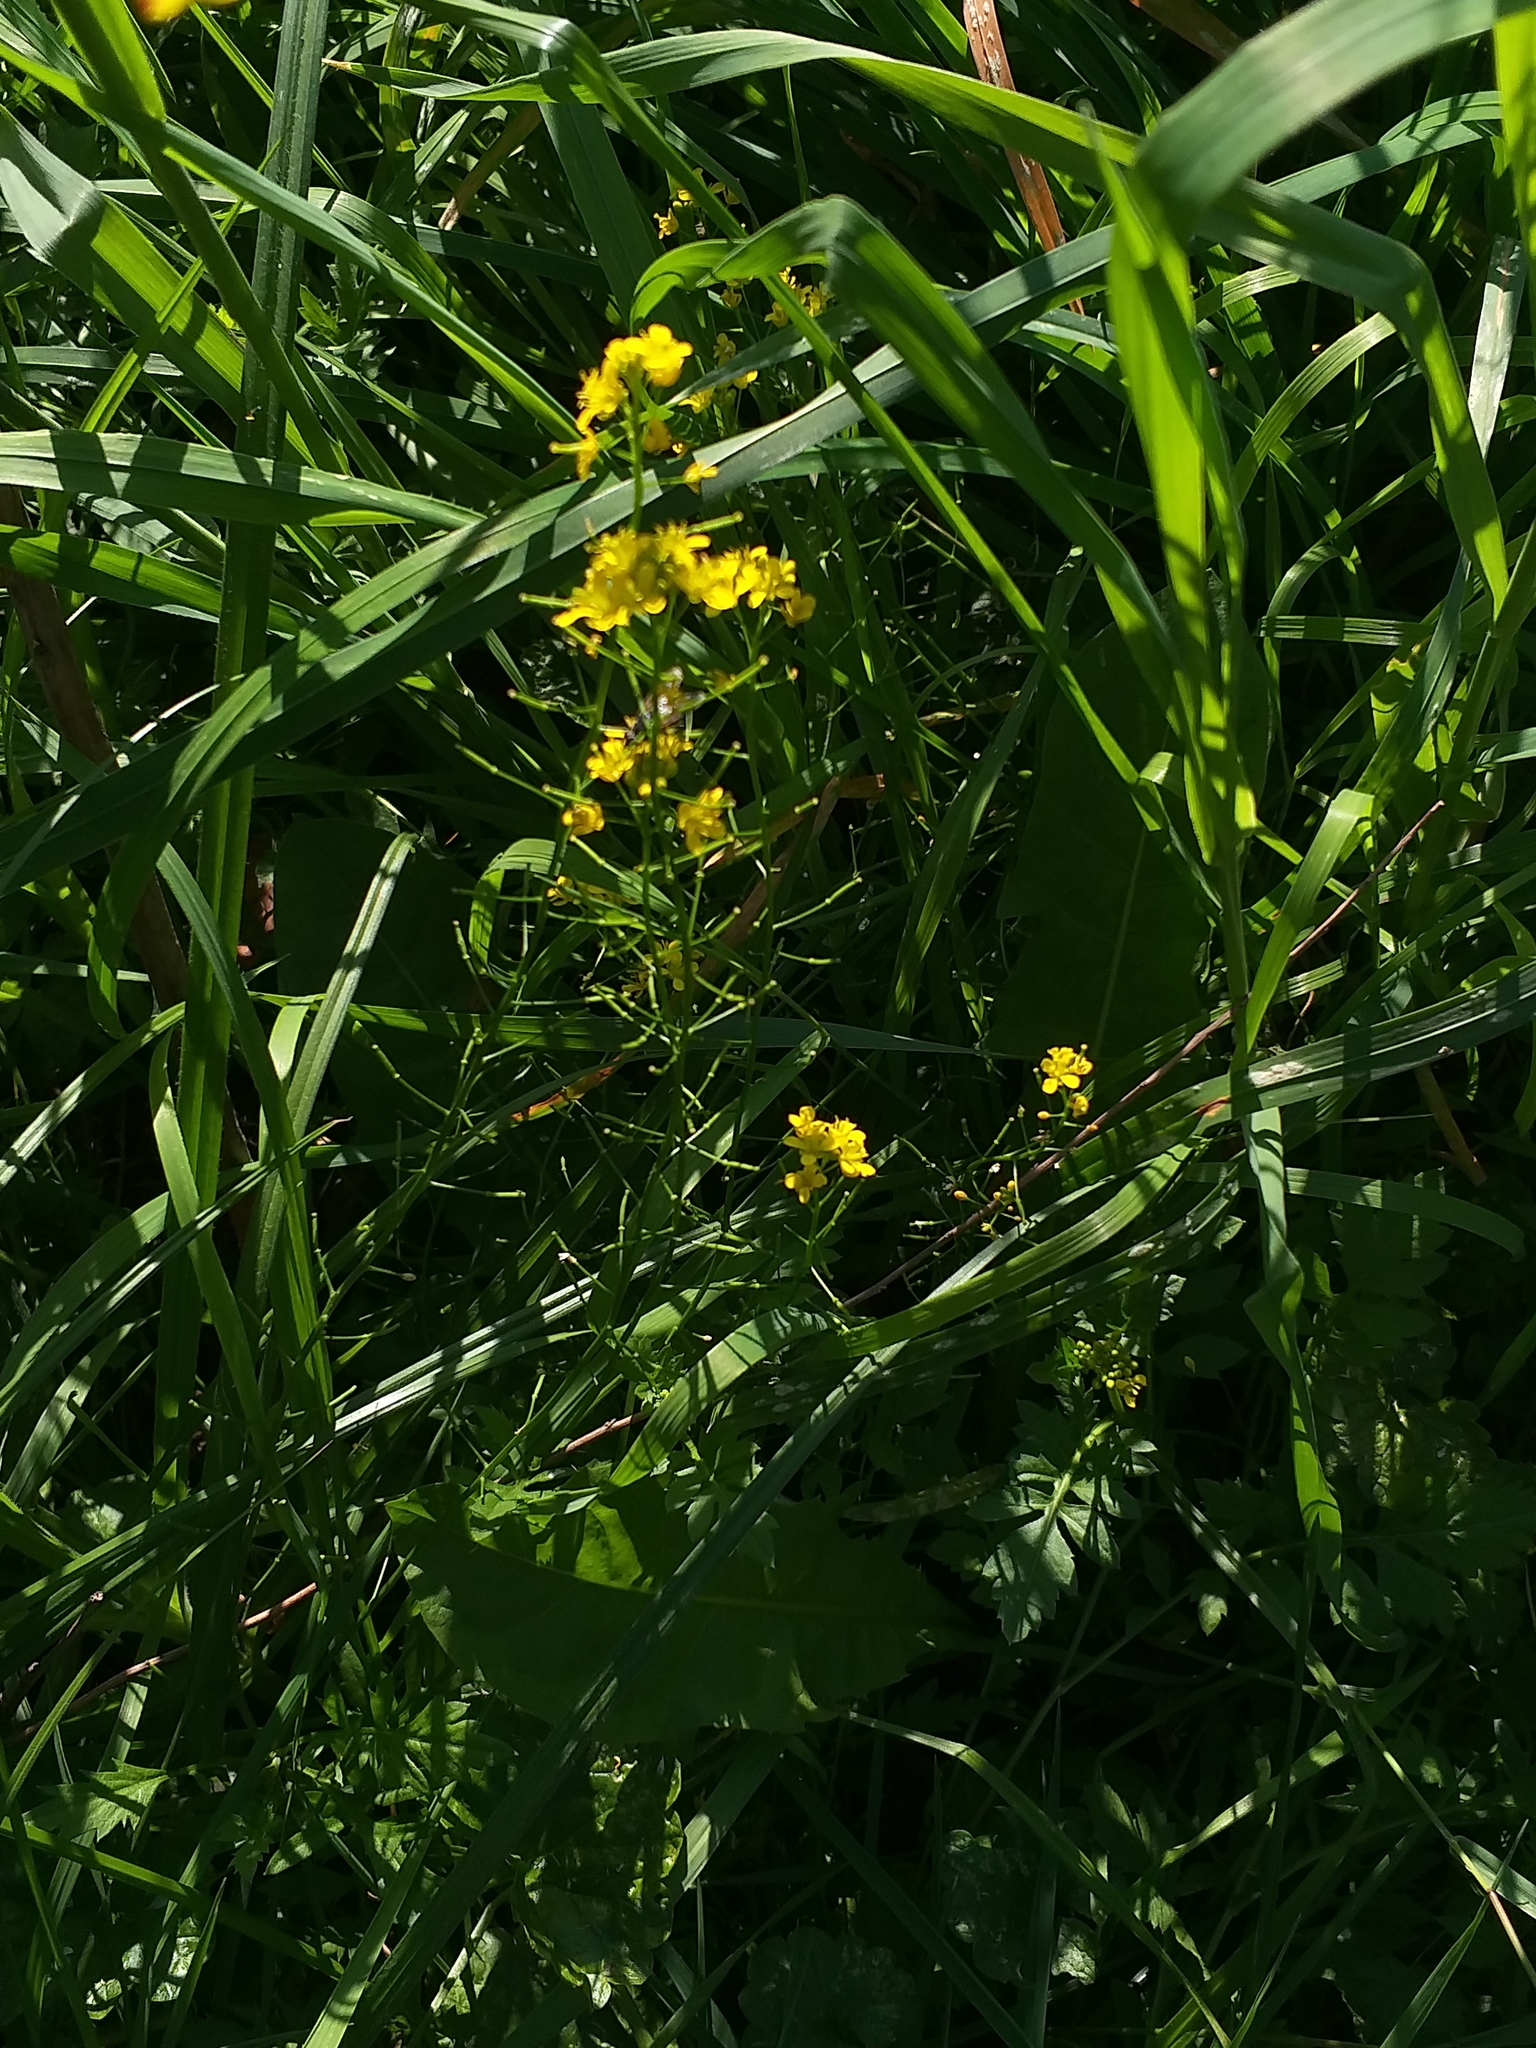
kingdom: Plantae
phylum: Tracheophyta
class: Magnoliopsida
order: Brassicales
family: Brassicaceae
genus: Rorippa
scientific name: Rorippa sylvestris
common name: Creeping yellowcress
